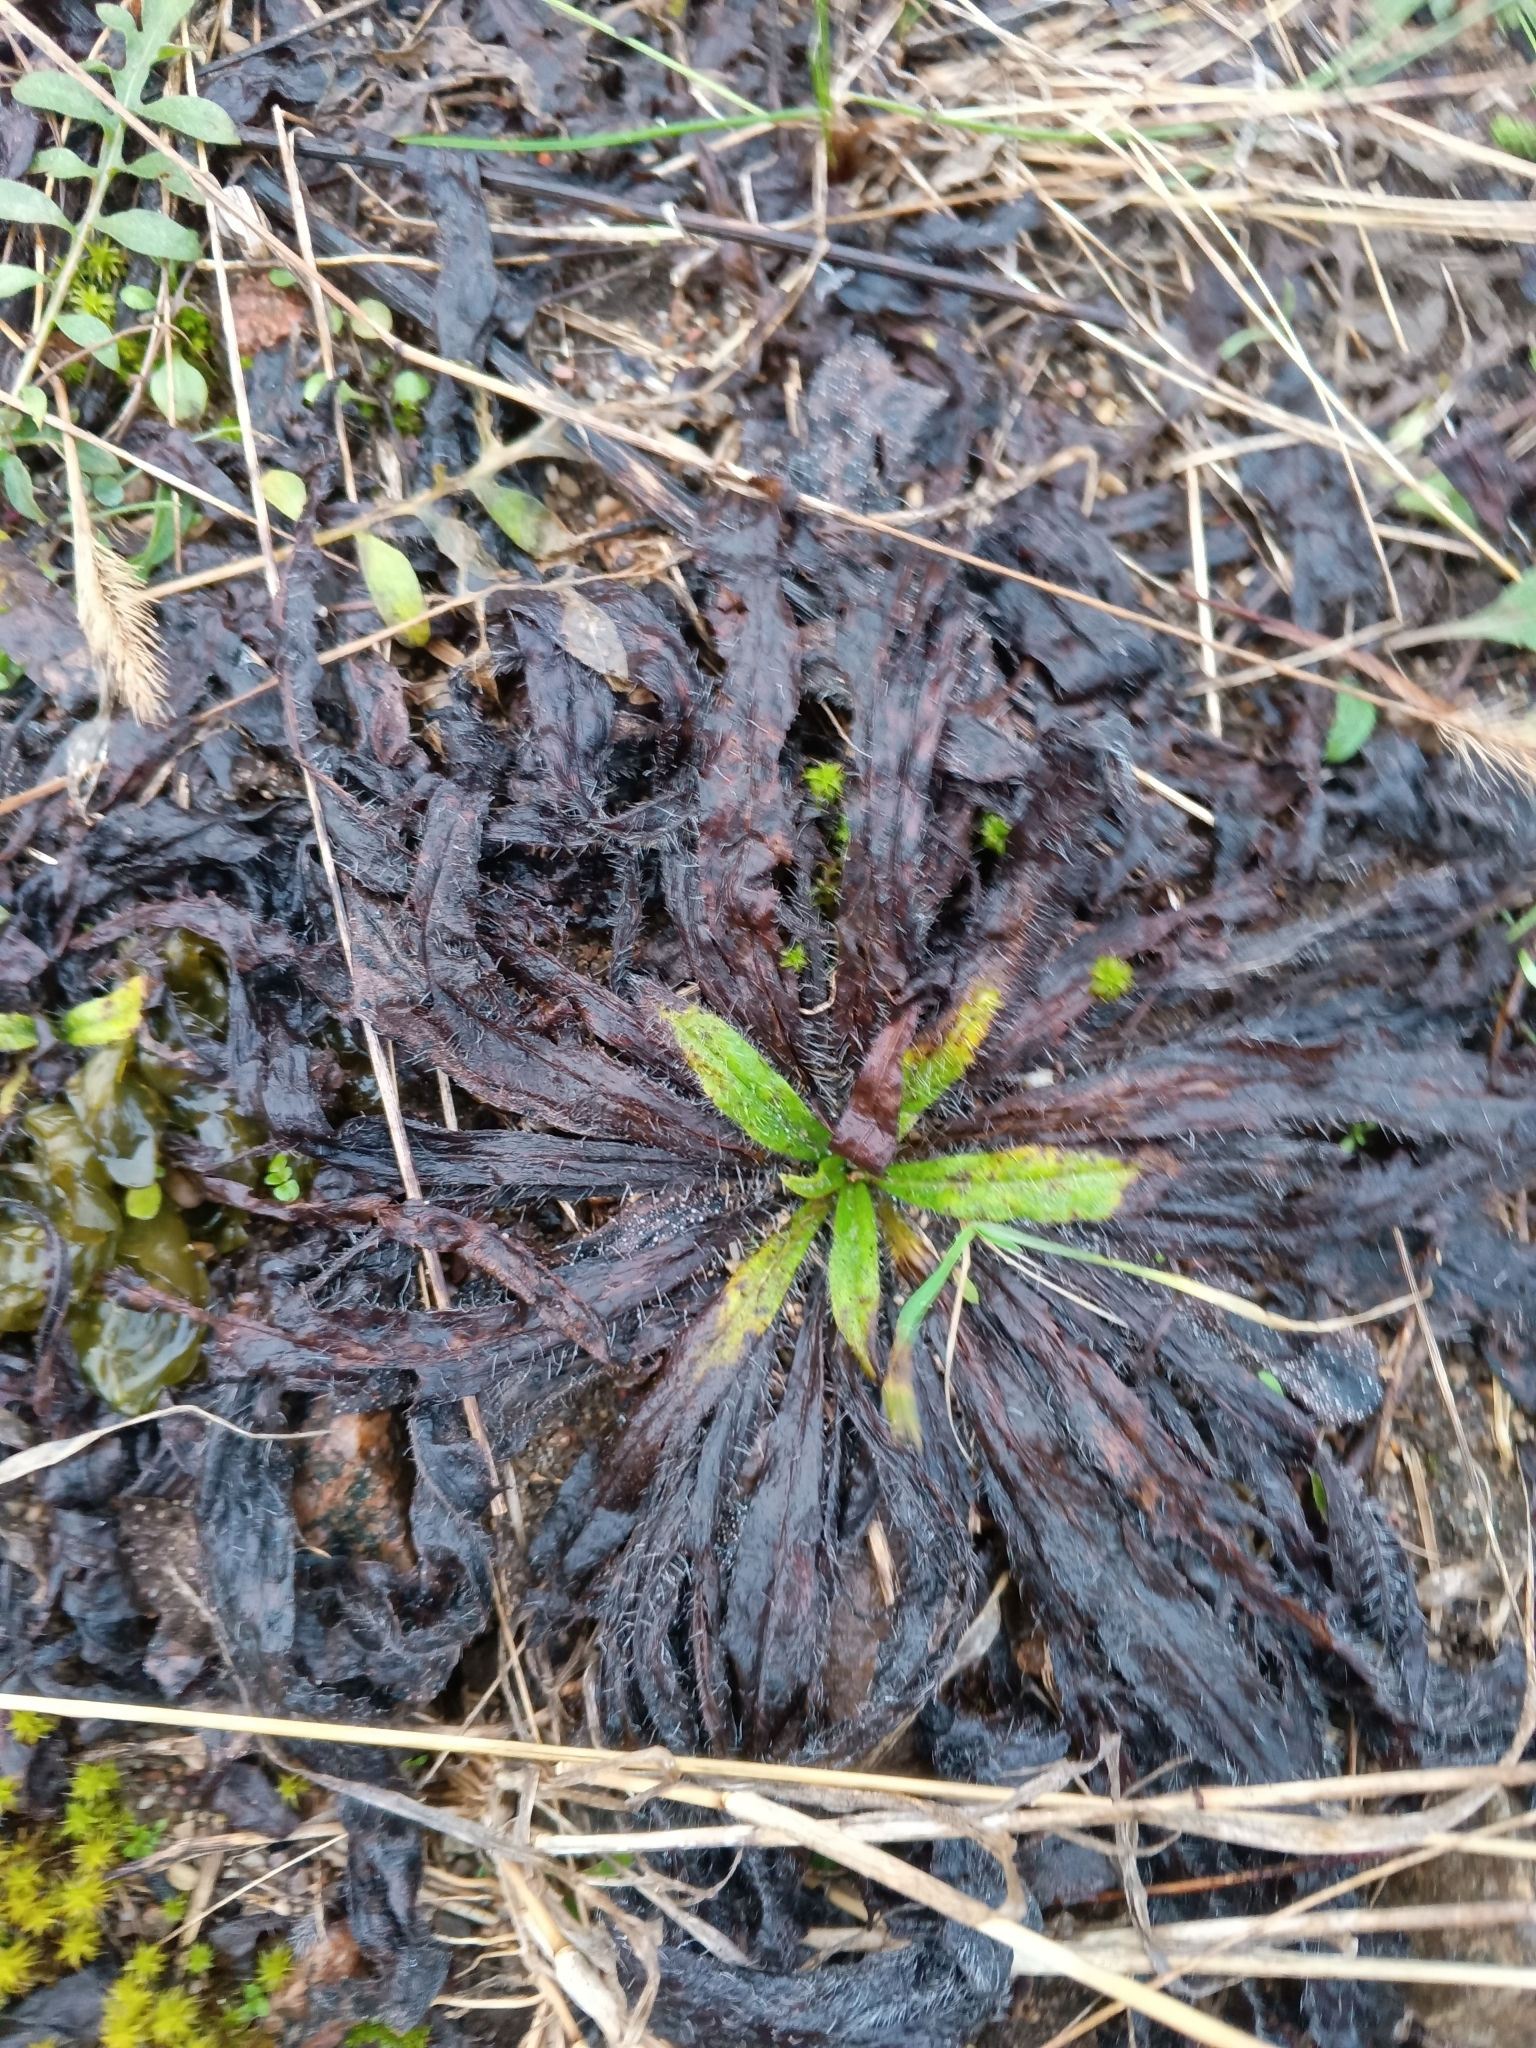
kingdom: Plantae
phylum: Tracheophyta
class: Magnoliopsida
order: Boraginales
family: Boraginaceae
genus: Echium
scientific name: Echium vulgare
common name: Common viper's bugloss
